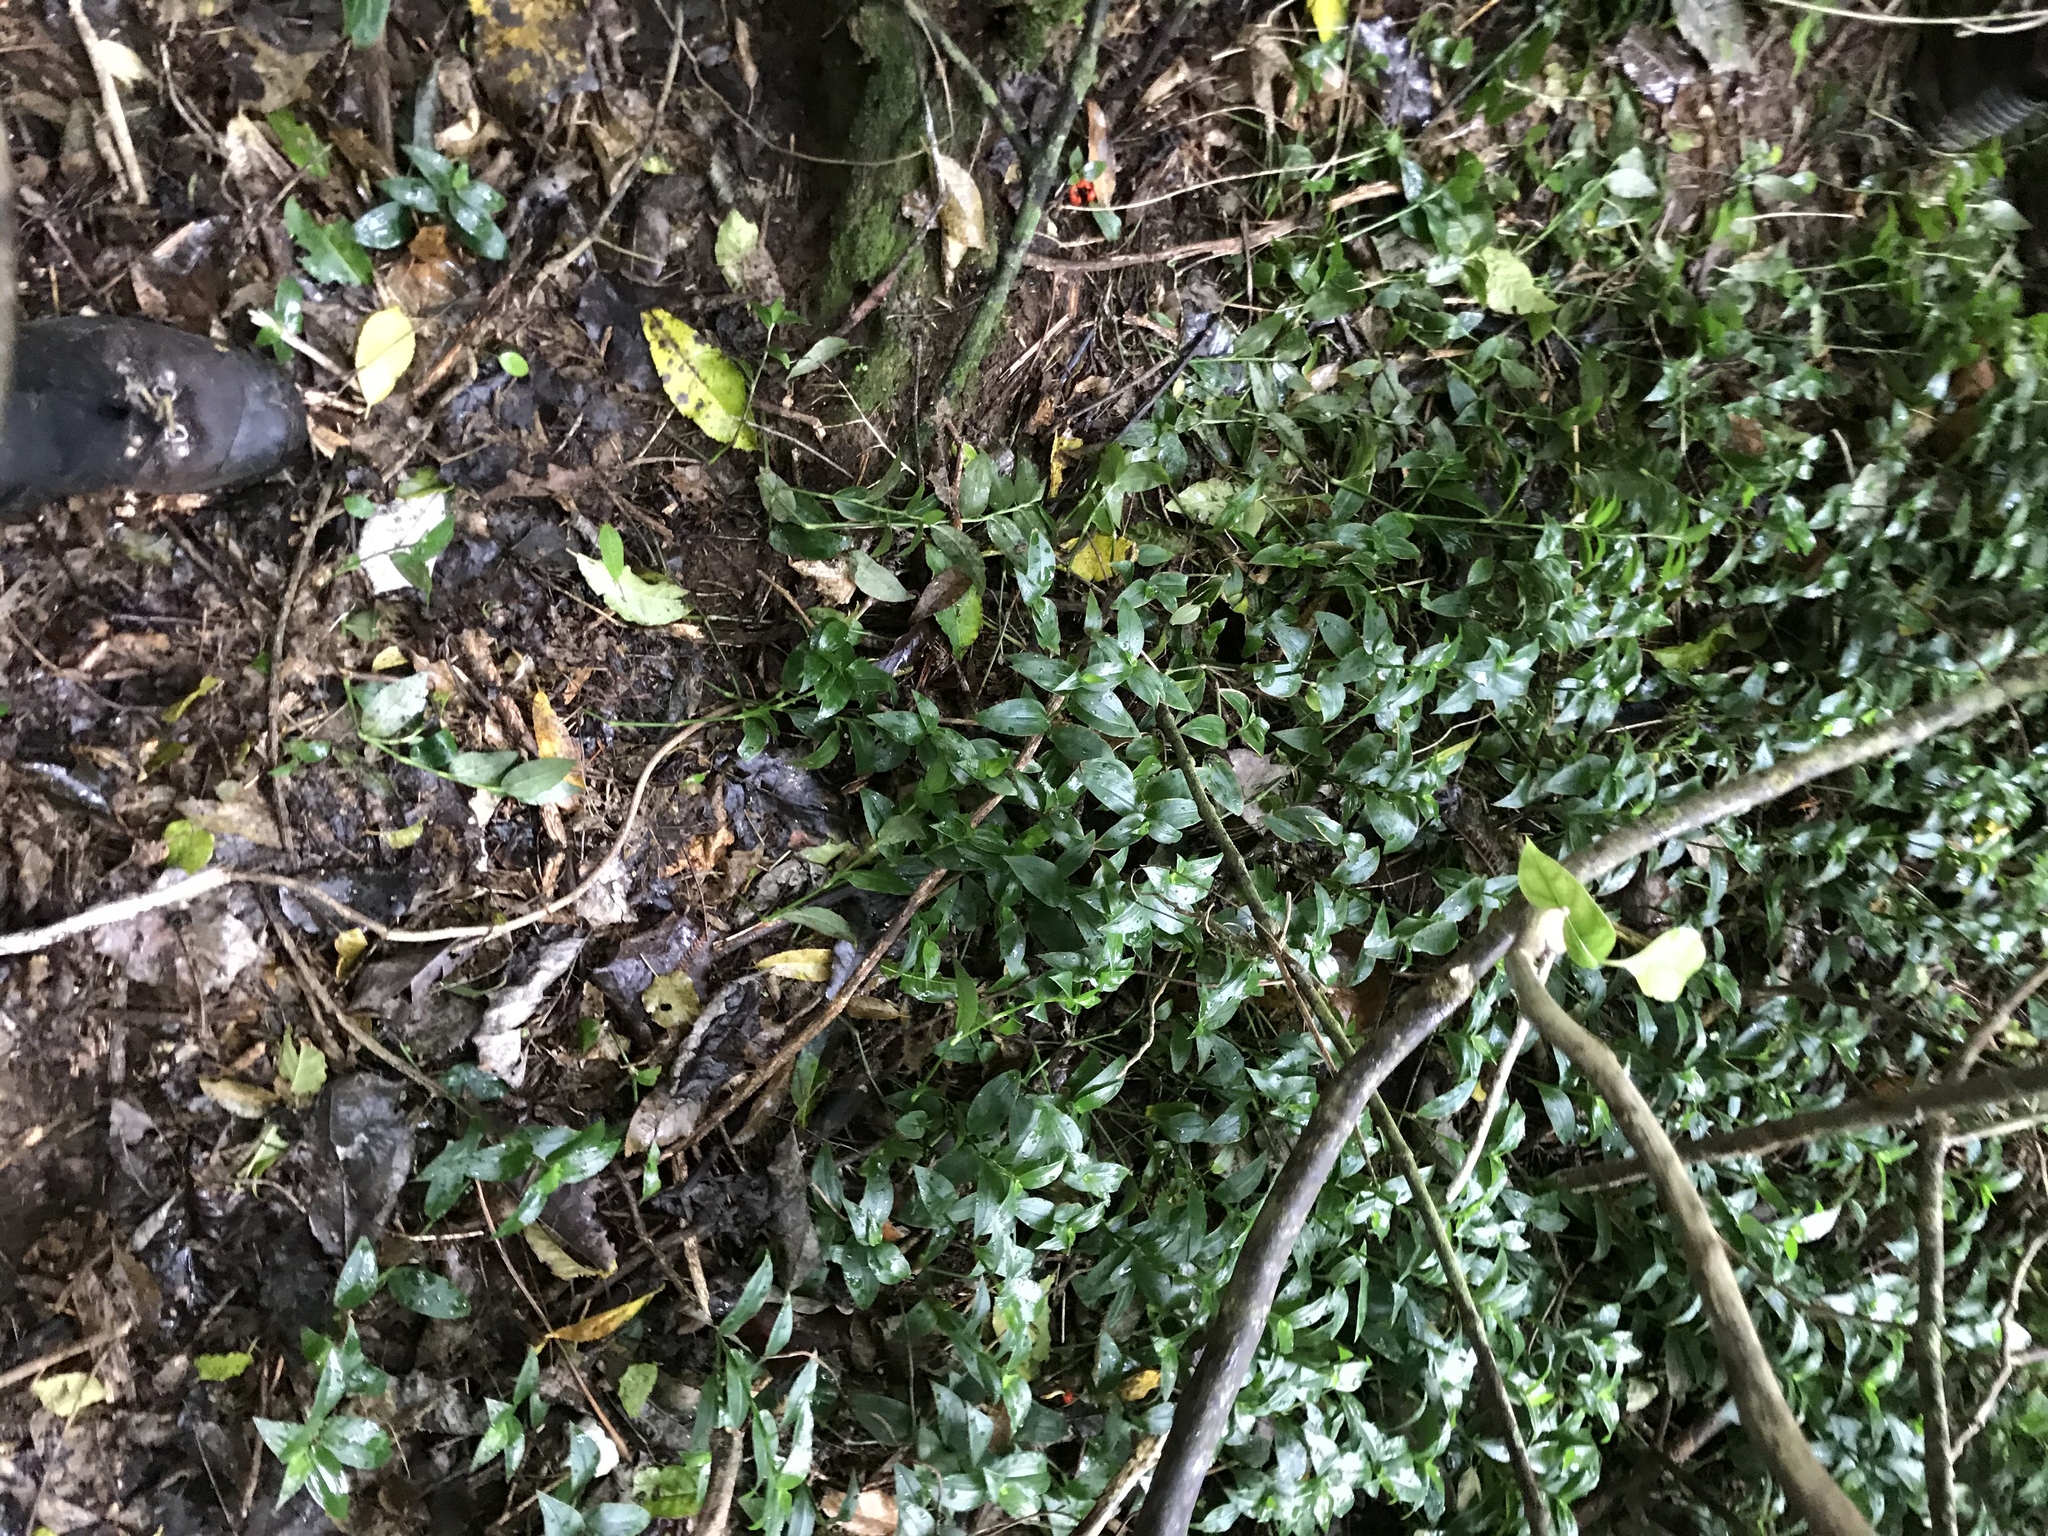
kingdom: Plantae
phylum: Tracheophyta
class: Liliopsida
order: Commelinales
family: Commelinaceae
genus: Tradescantia
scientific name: Tradescantia fluminensis
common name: Wandering-jew
